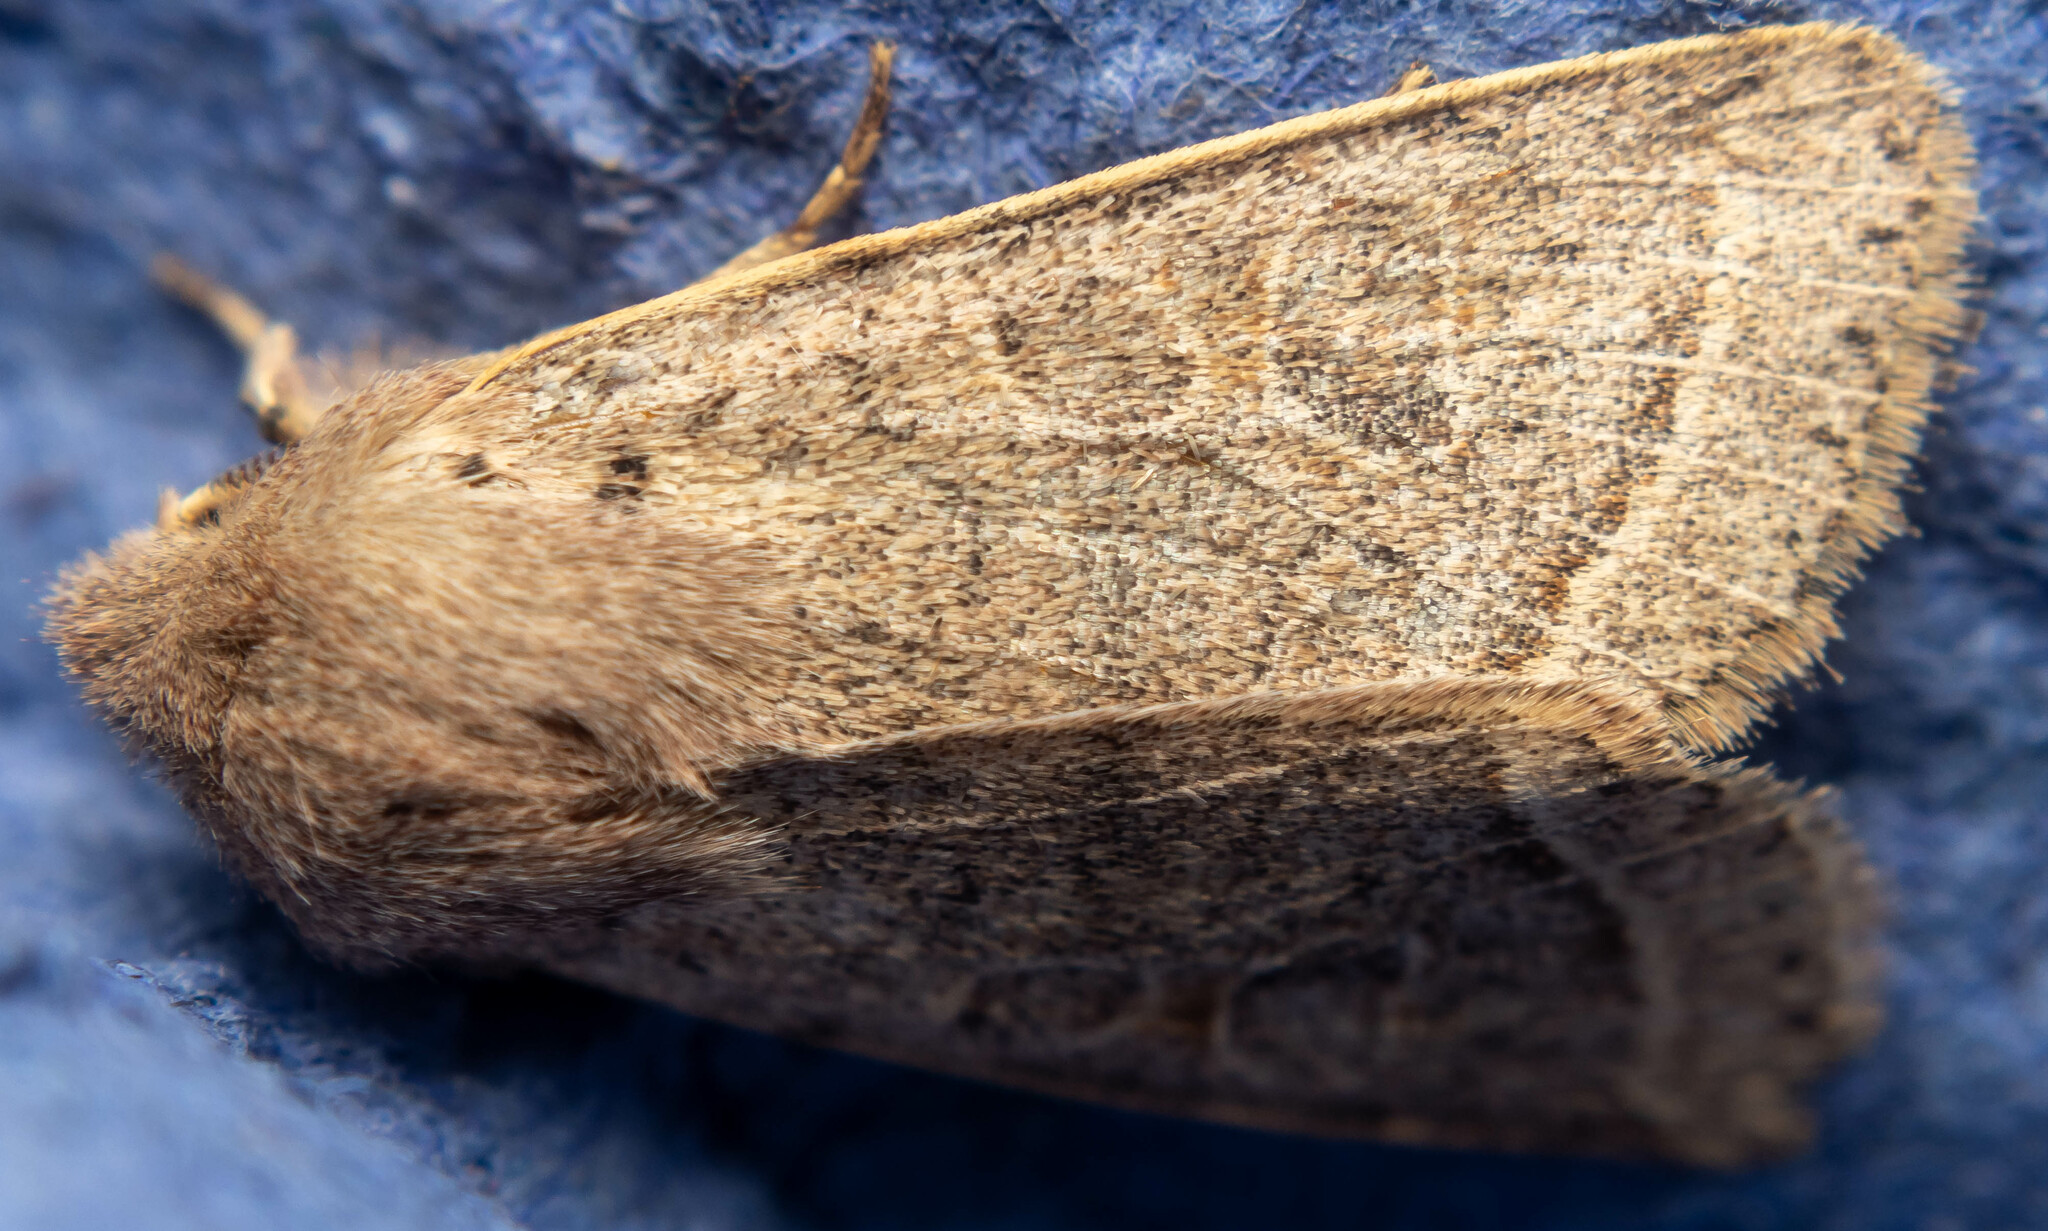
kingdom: Animalia
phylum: Arthropoda
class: Insecta
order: Lepidoptera
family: Noctuidae
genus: Orthosia
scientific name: Orthosia cerasi
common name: Common quaker
